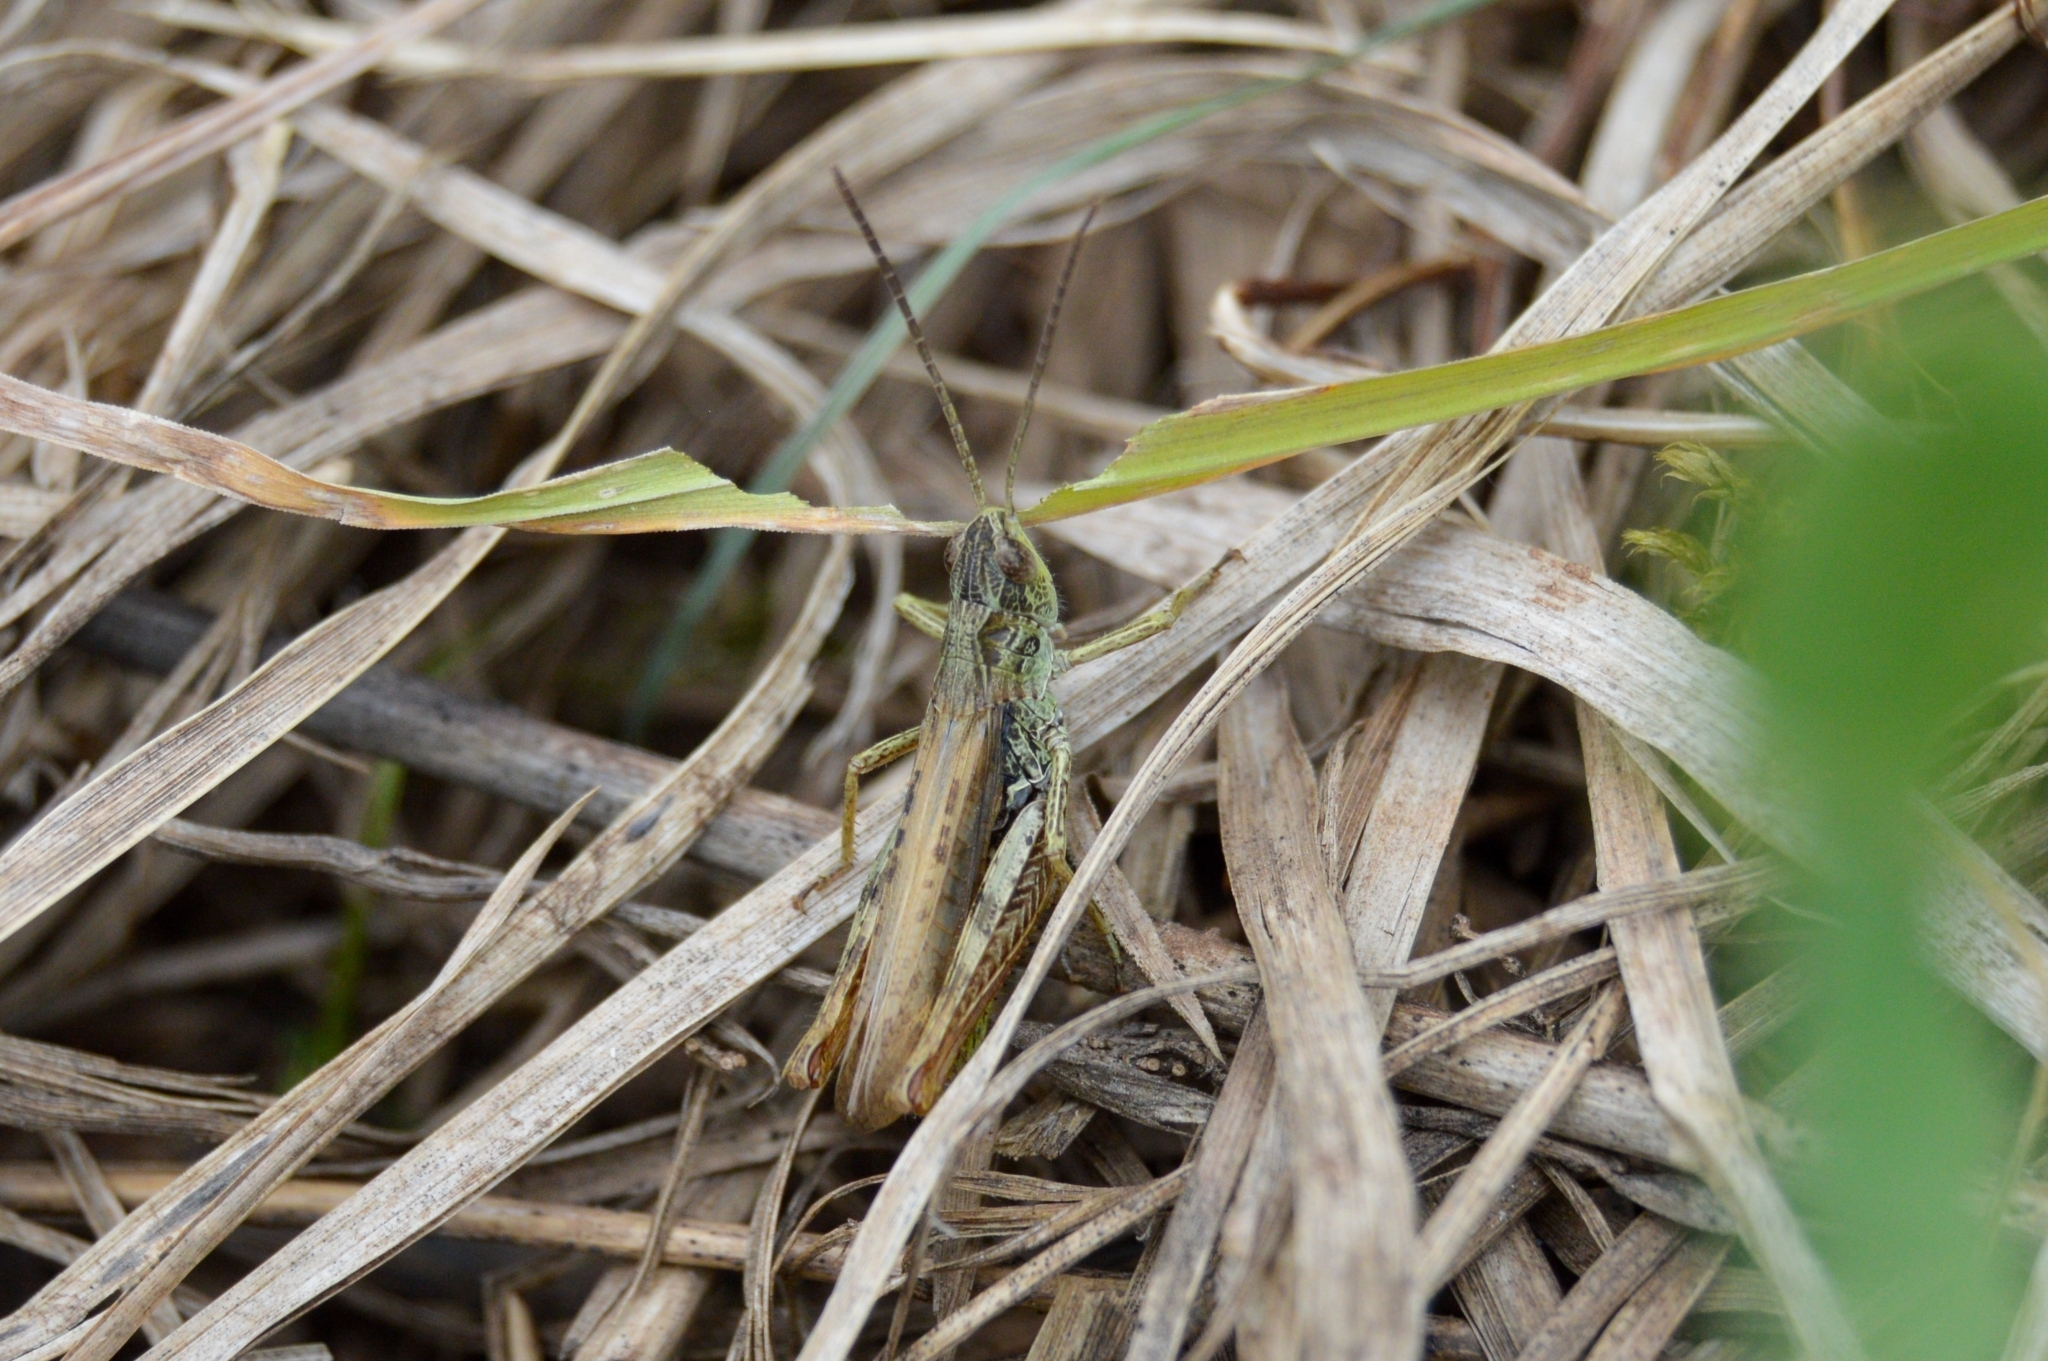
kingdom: Animalia
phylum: Arthropoda
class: Insecta
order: Orthoptera
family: Acrididae
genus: Chorthippus
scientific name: Chorthippus apricarius
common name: Upland field grasshopper
